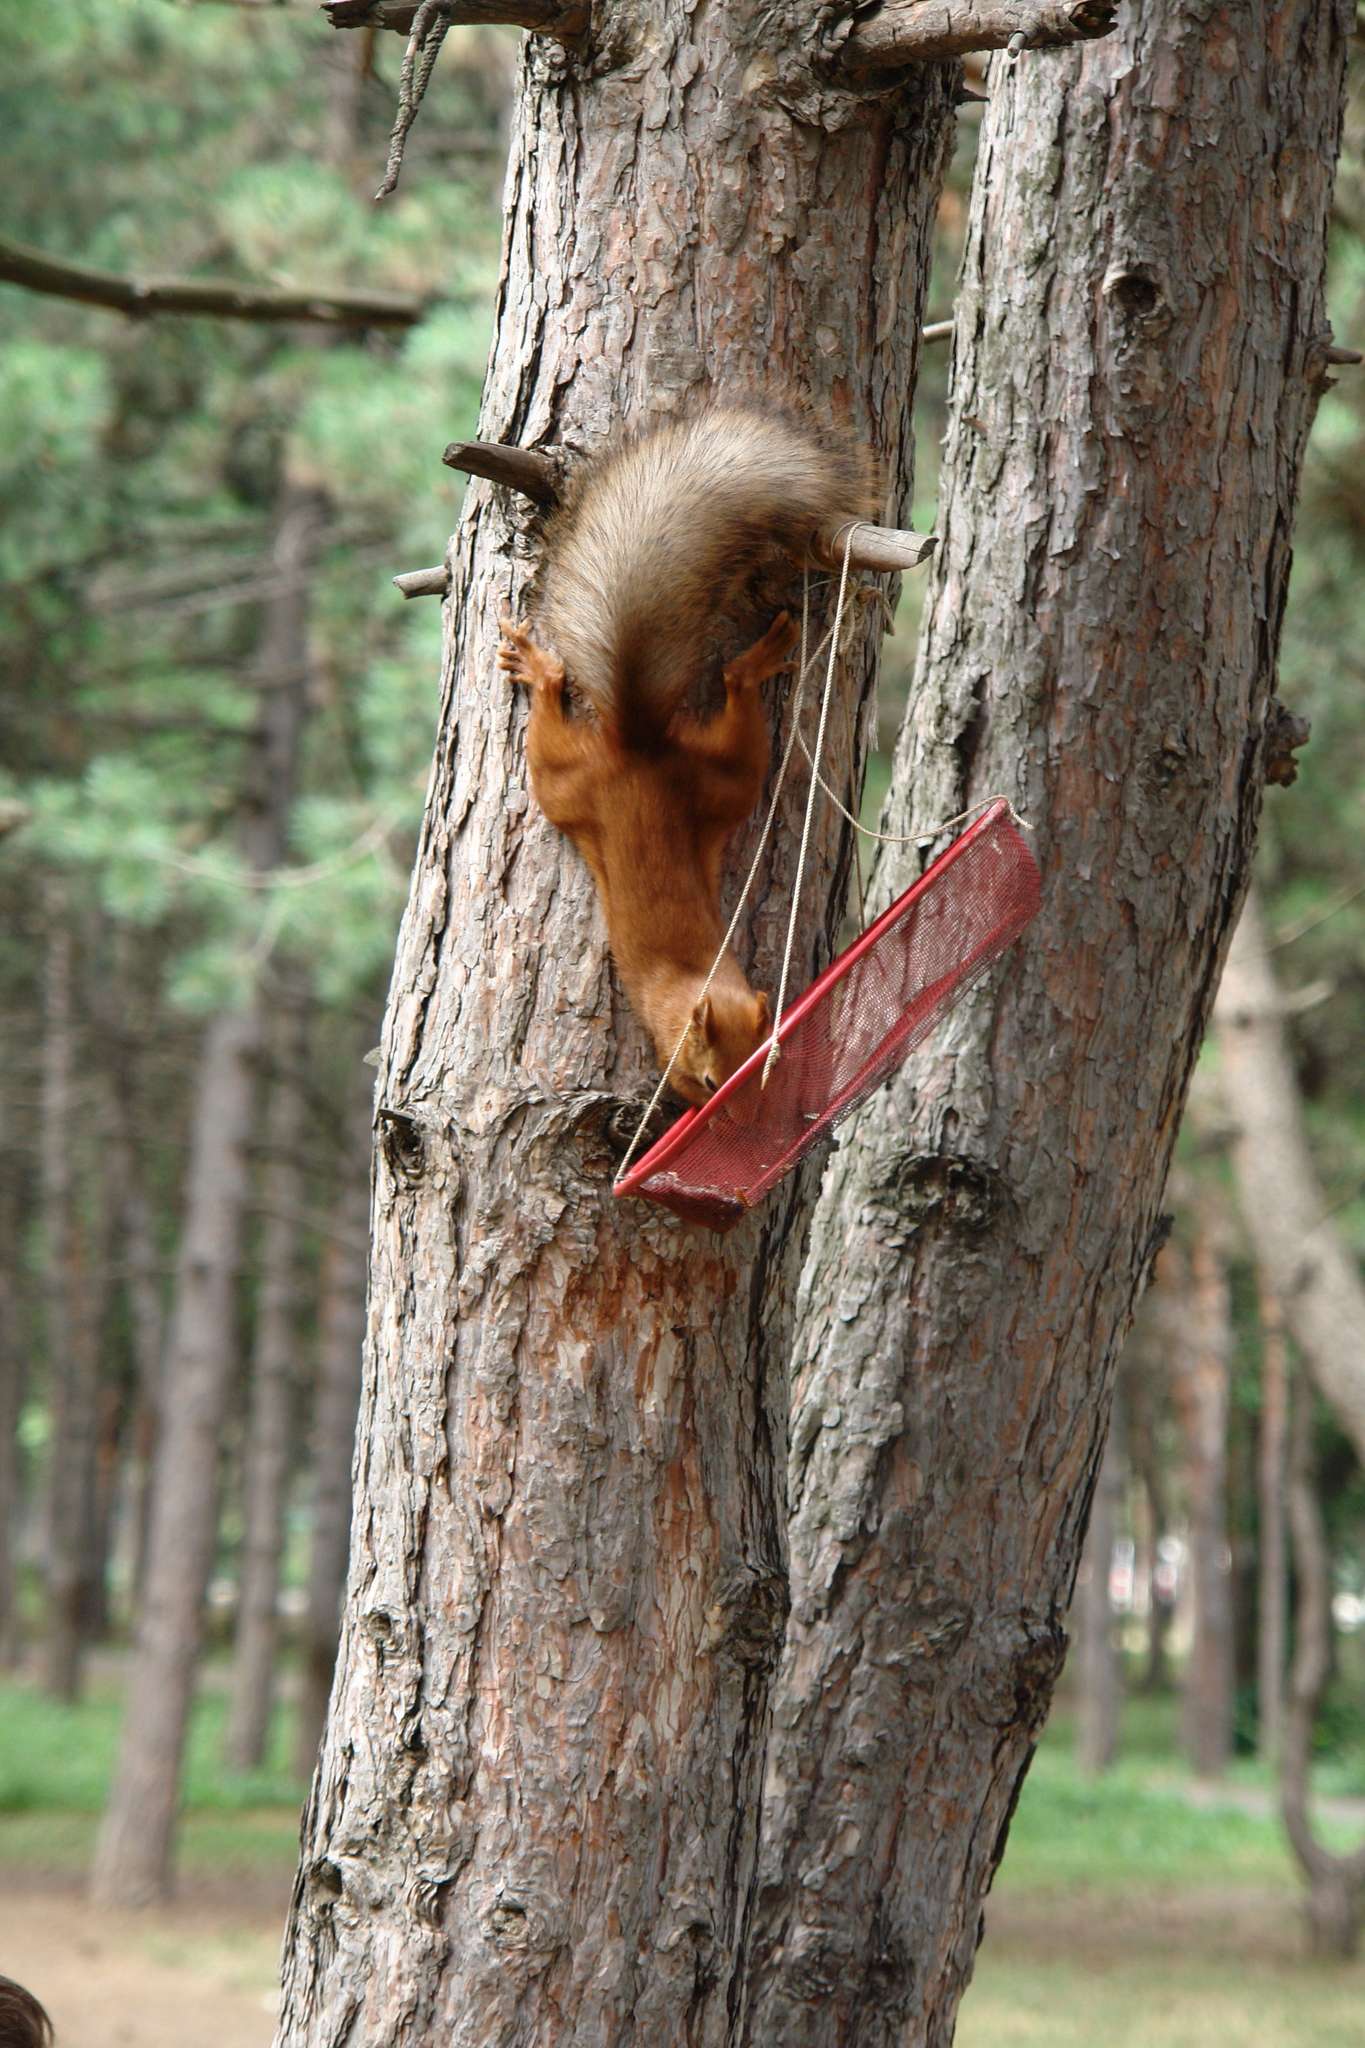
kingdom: Animalia
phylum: Chordata
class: Mammalia
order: Rodentia
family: Sciuridae
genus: Sciurus
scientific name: Sciurus vulgaris
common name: Eurasian red squirrel
